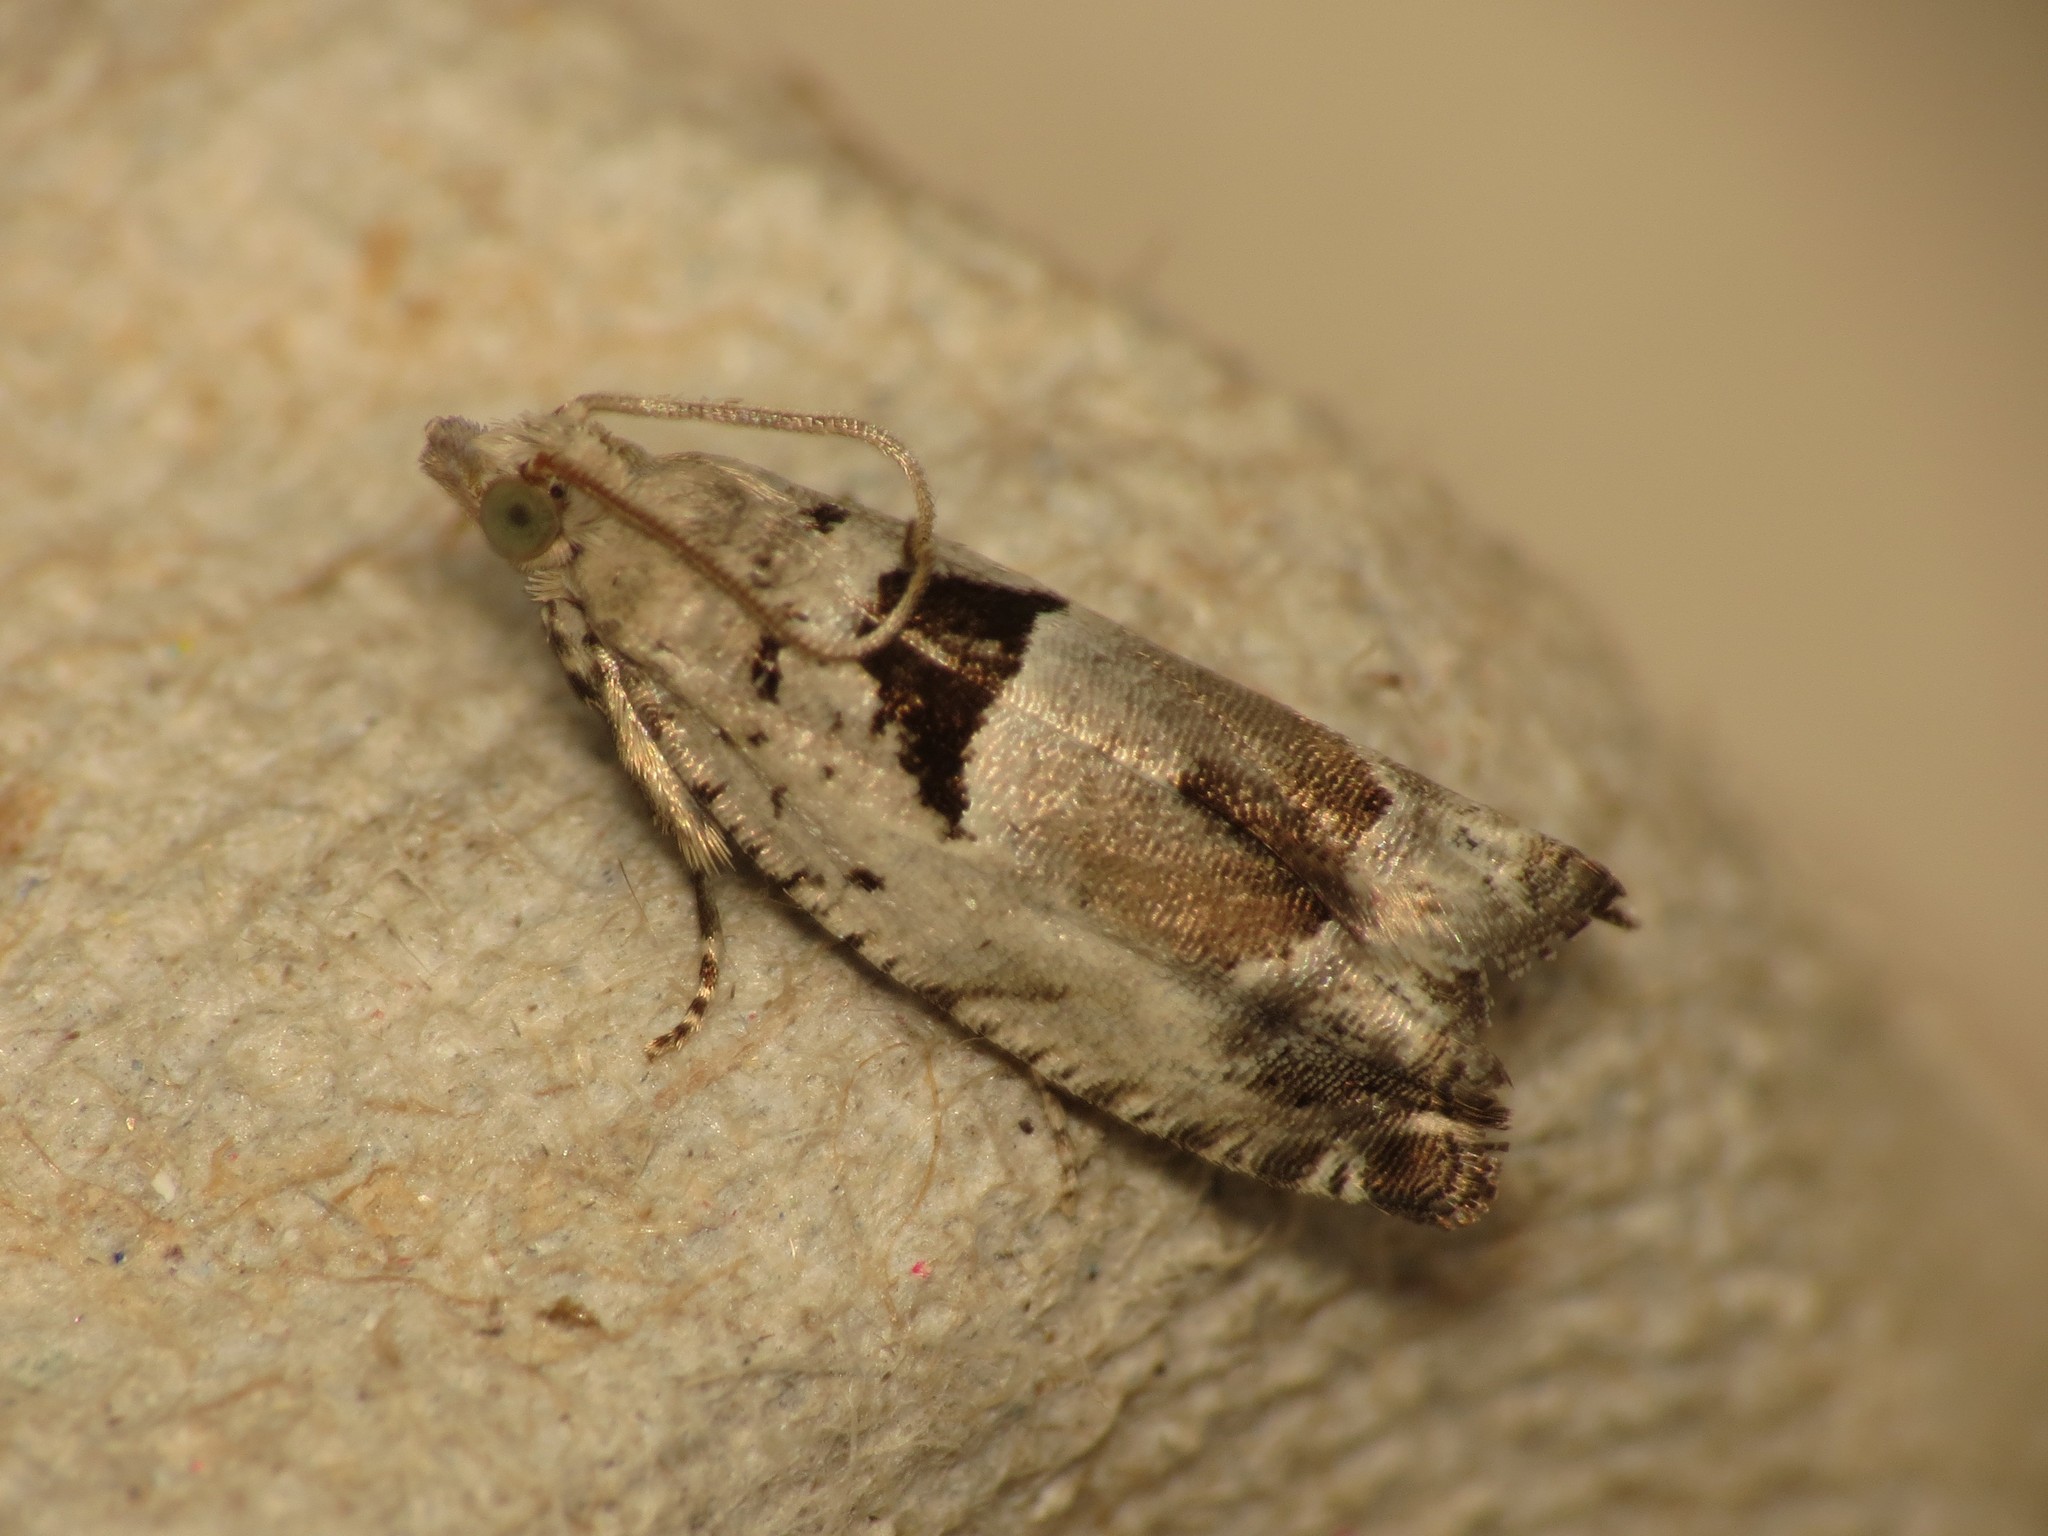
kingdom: Animalia
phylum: Arthropoda
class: Insecta
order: Lepidoptera
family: Tortricidae
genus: Epinotia
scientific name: Epinotia ramella
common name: Small birch bell
